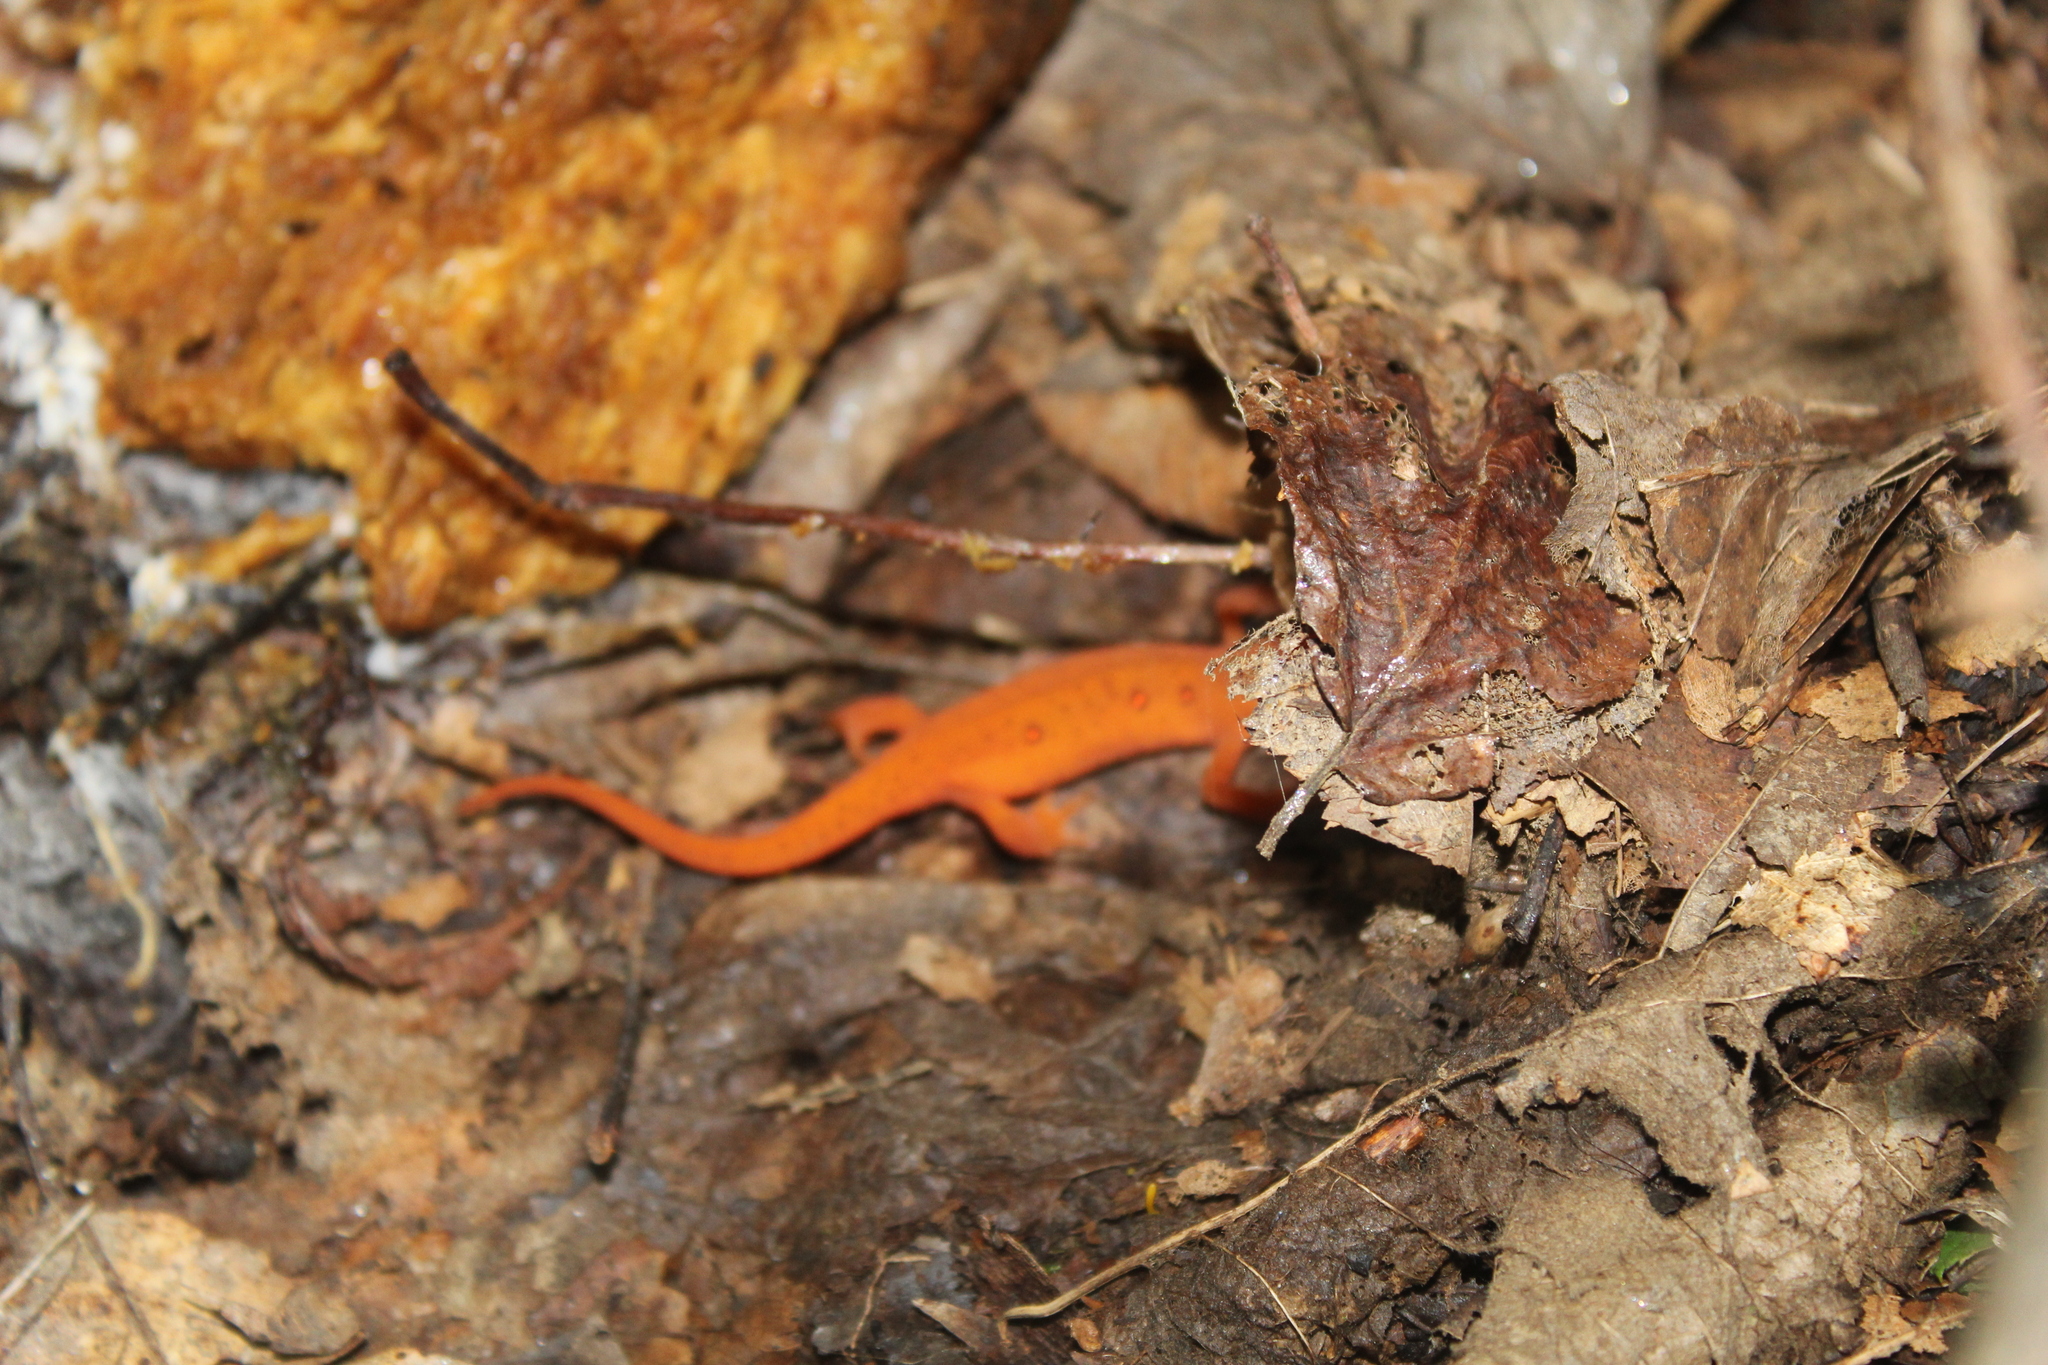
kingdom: Animalia
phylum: Chordata
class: Amphibia
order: Caudata
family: Salamandridae
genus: Notophthalmus
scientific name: Notophthalmus viridescens
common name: Eastern newt
